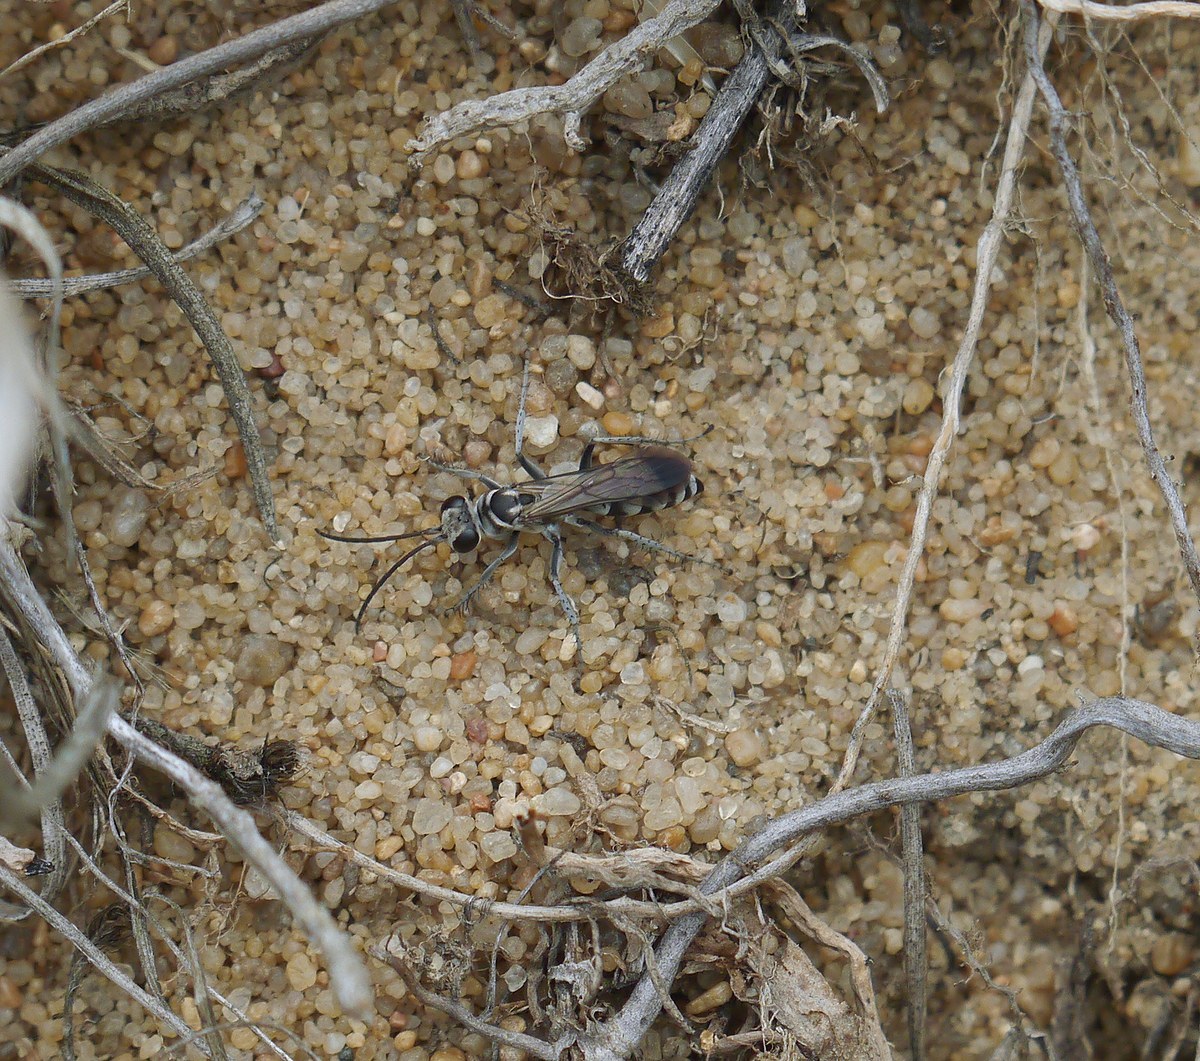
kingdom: Animalia
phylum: Arthropoda
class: Insecta
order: Hymenoptera
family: Pompilidae
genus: Pompilus
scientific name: Pompilus cinereus
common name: Leaden spider wasp
